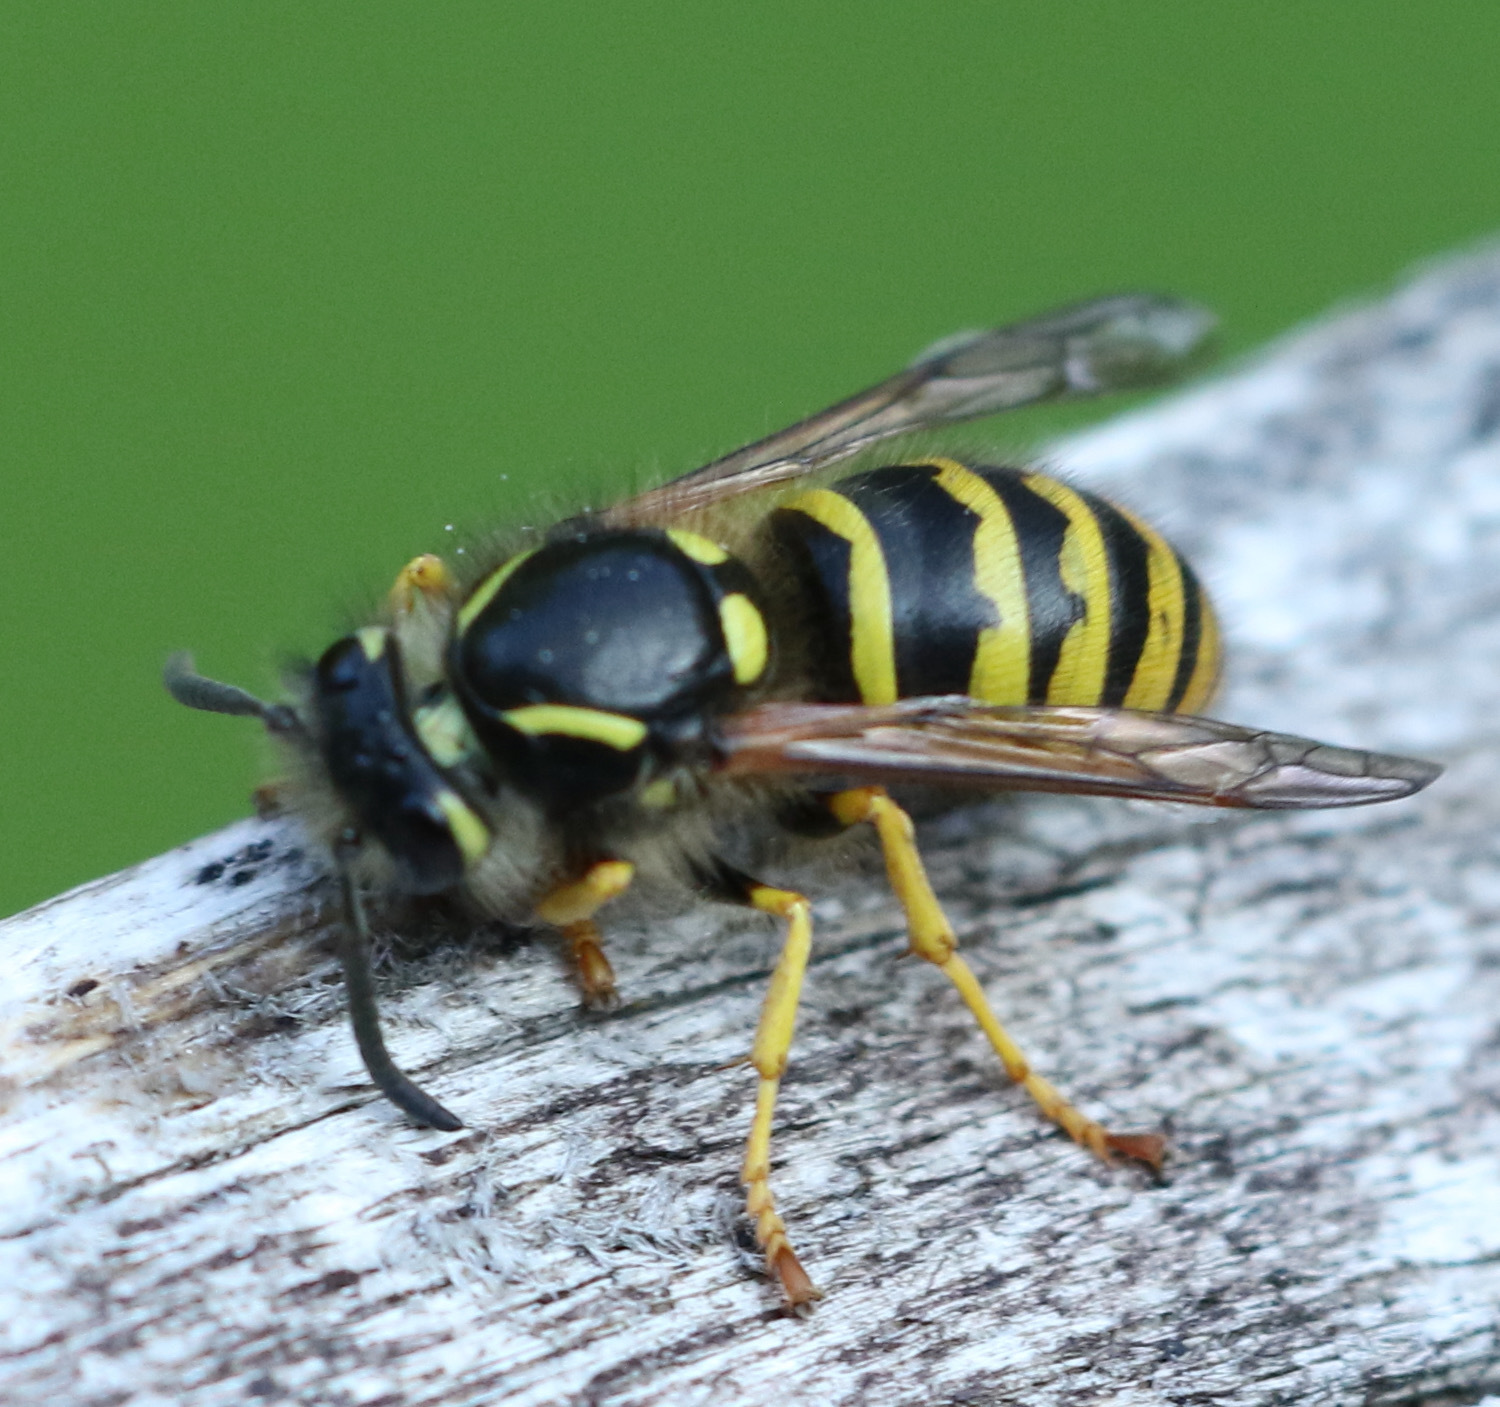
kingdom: Animalia
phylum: Arthropoda
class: Insecta
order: Hymenoptera
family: Vespidae
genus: Dolichovespula
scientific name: Dolichovespula sylvestris
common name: Tree wasp
